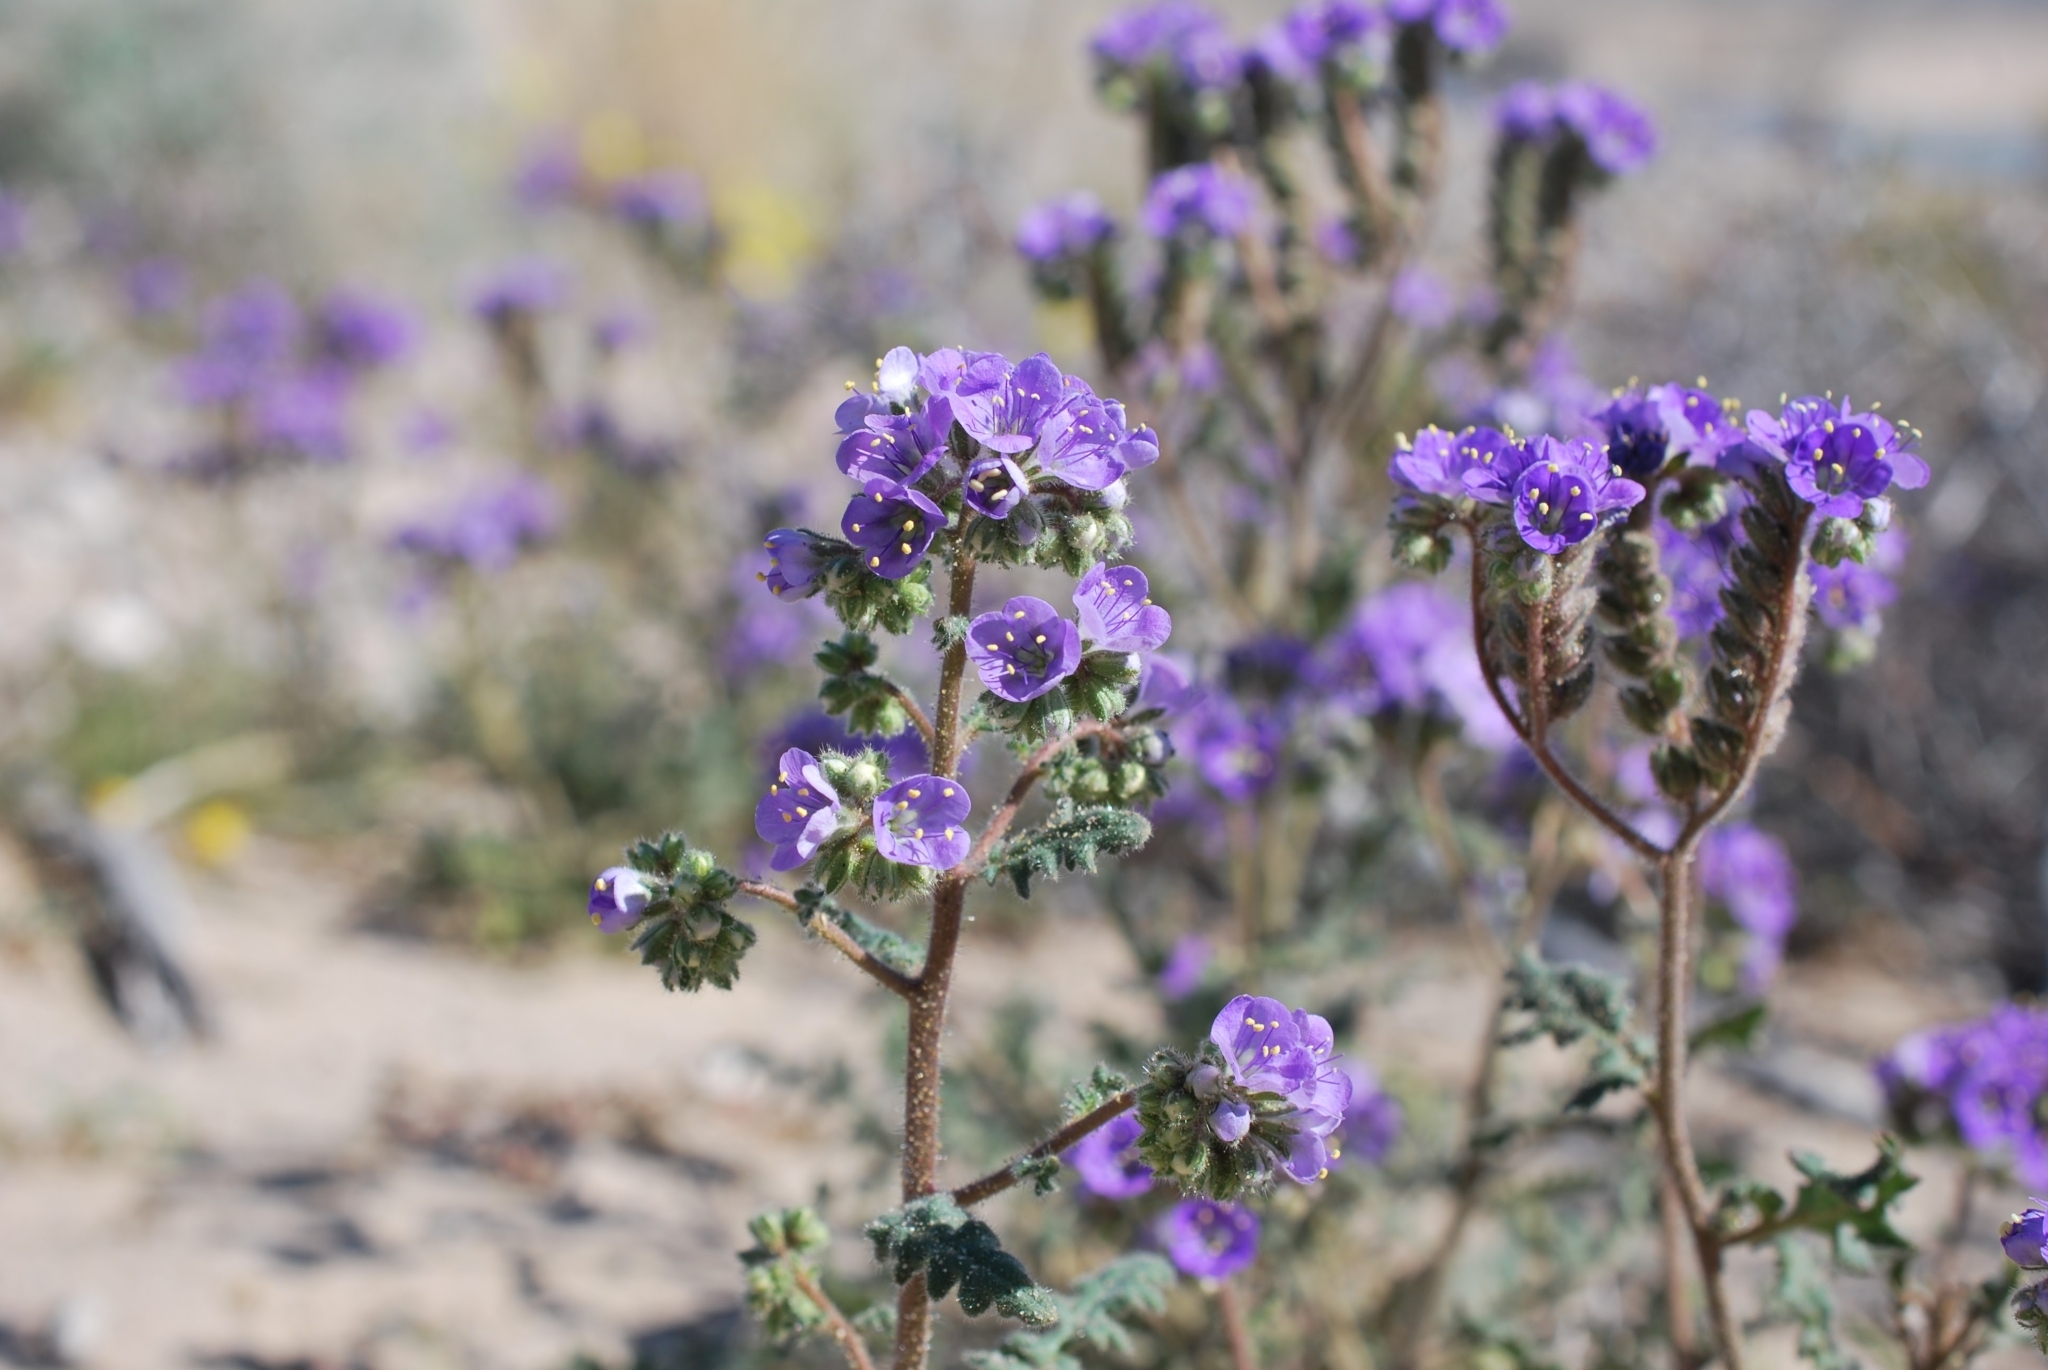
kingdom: Plantae
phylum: Tracheophyta
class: Magnoliopsida
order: Boraginales
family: Hydrophyllaceae
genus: Phacelia
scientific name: Phacelia crenulata
